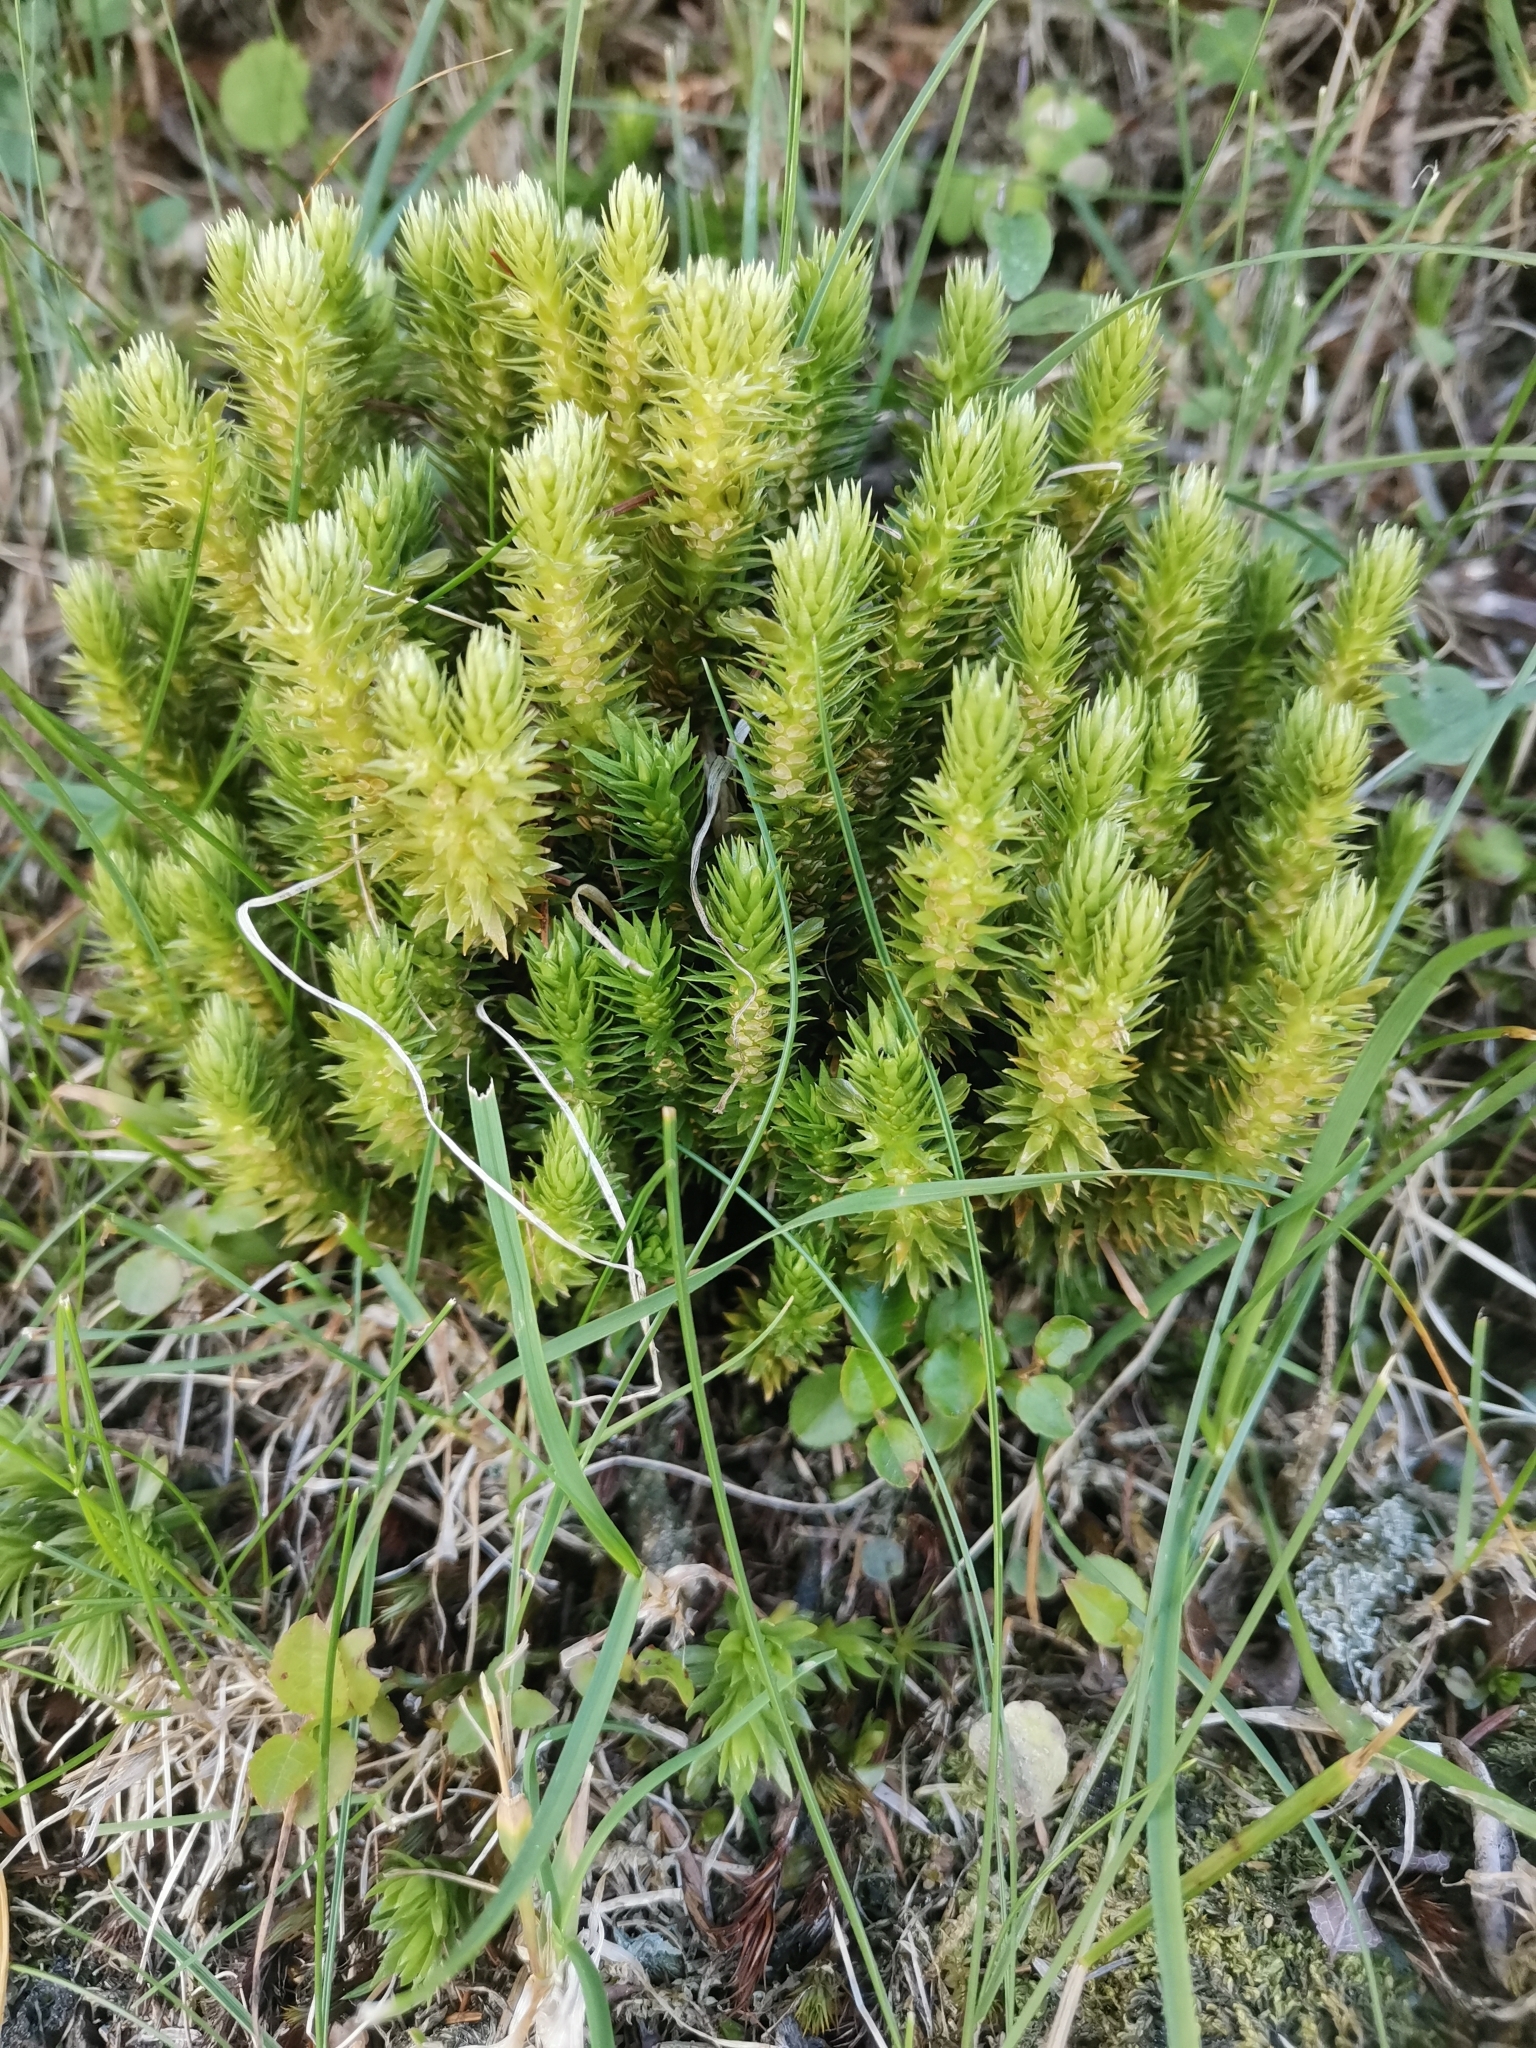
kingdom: Plantae
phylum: Tracheophyta
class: Lycopodiopsida
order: Lycopodiales
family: Lycopodiaceae
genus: Huperzia
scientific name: Huperzia selago
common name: Northern firmoss
